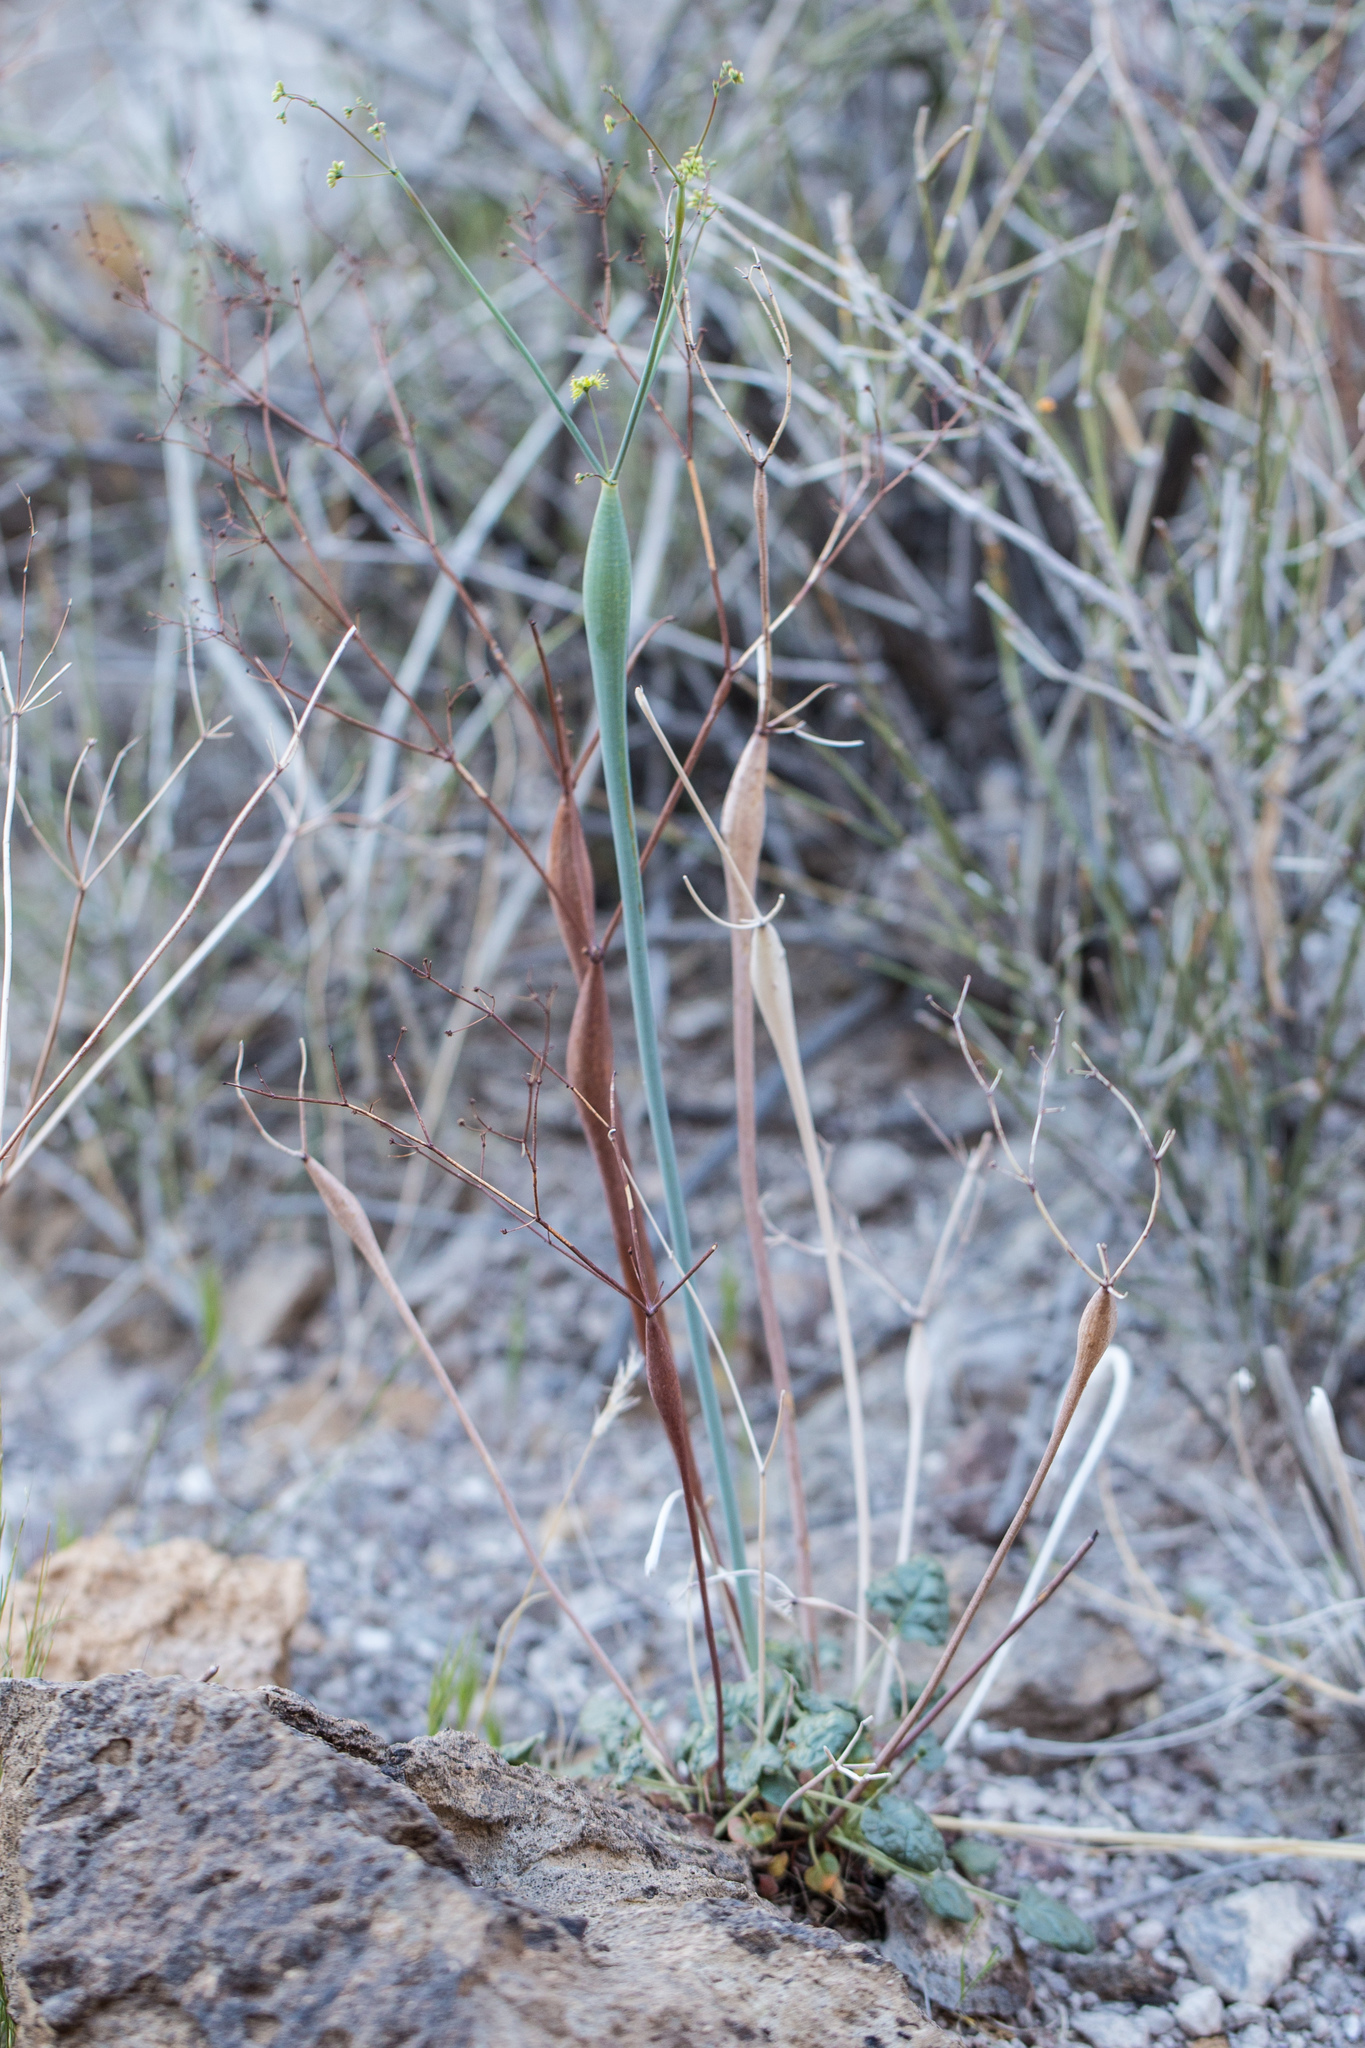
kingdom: Plantae
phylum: Tracheophyta
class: Magnoliopsida
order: Caryophyllales
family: Polygonaceae
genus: Eriogonum
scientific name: Eriogonum inflatum
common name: Desert trumpet
